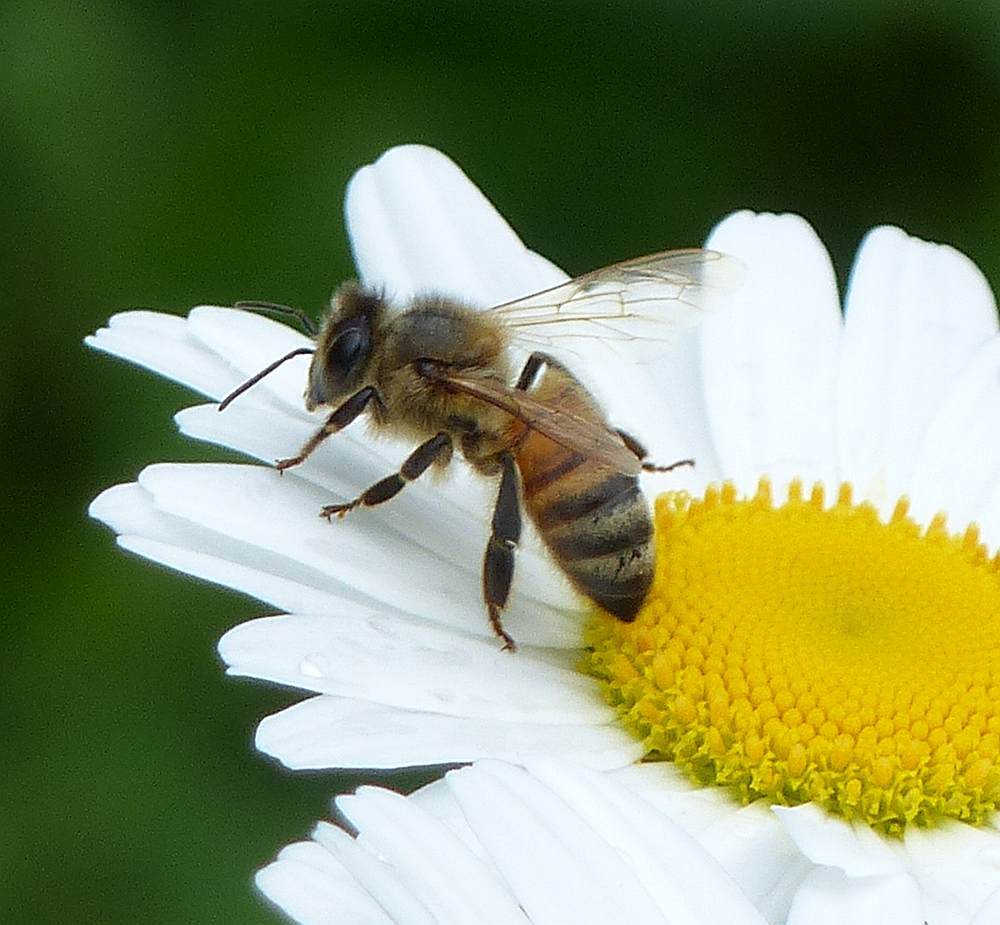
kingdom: Animalia
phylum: Arthropoda
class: Insecta
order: Hymenoptera
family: Apidae
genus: Apis
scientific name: Apis mellifera
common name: Honey bee
